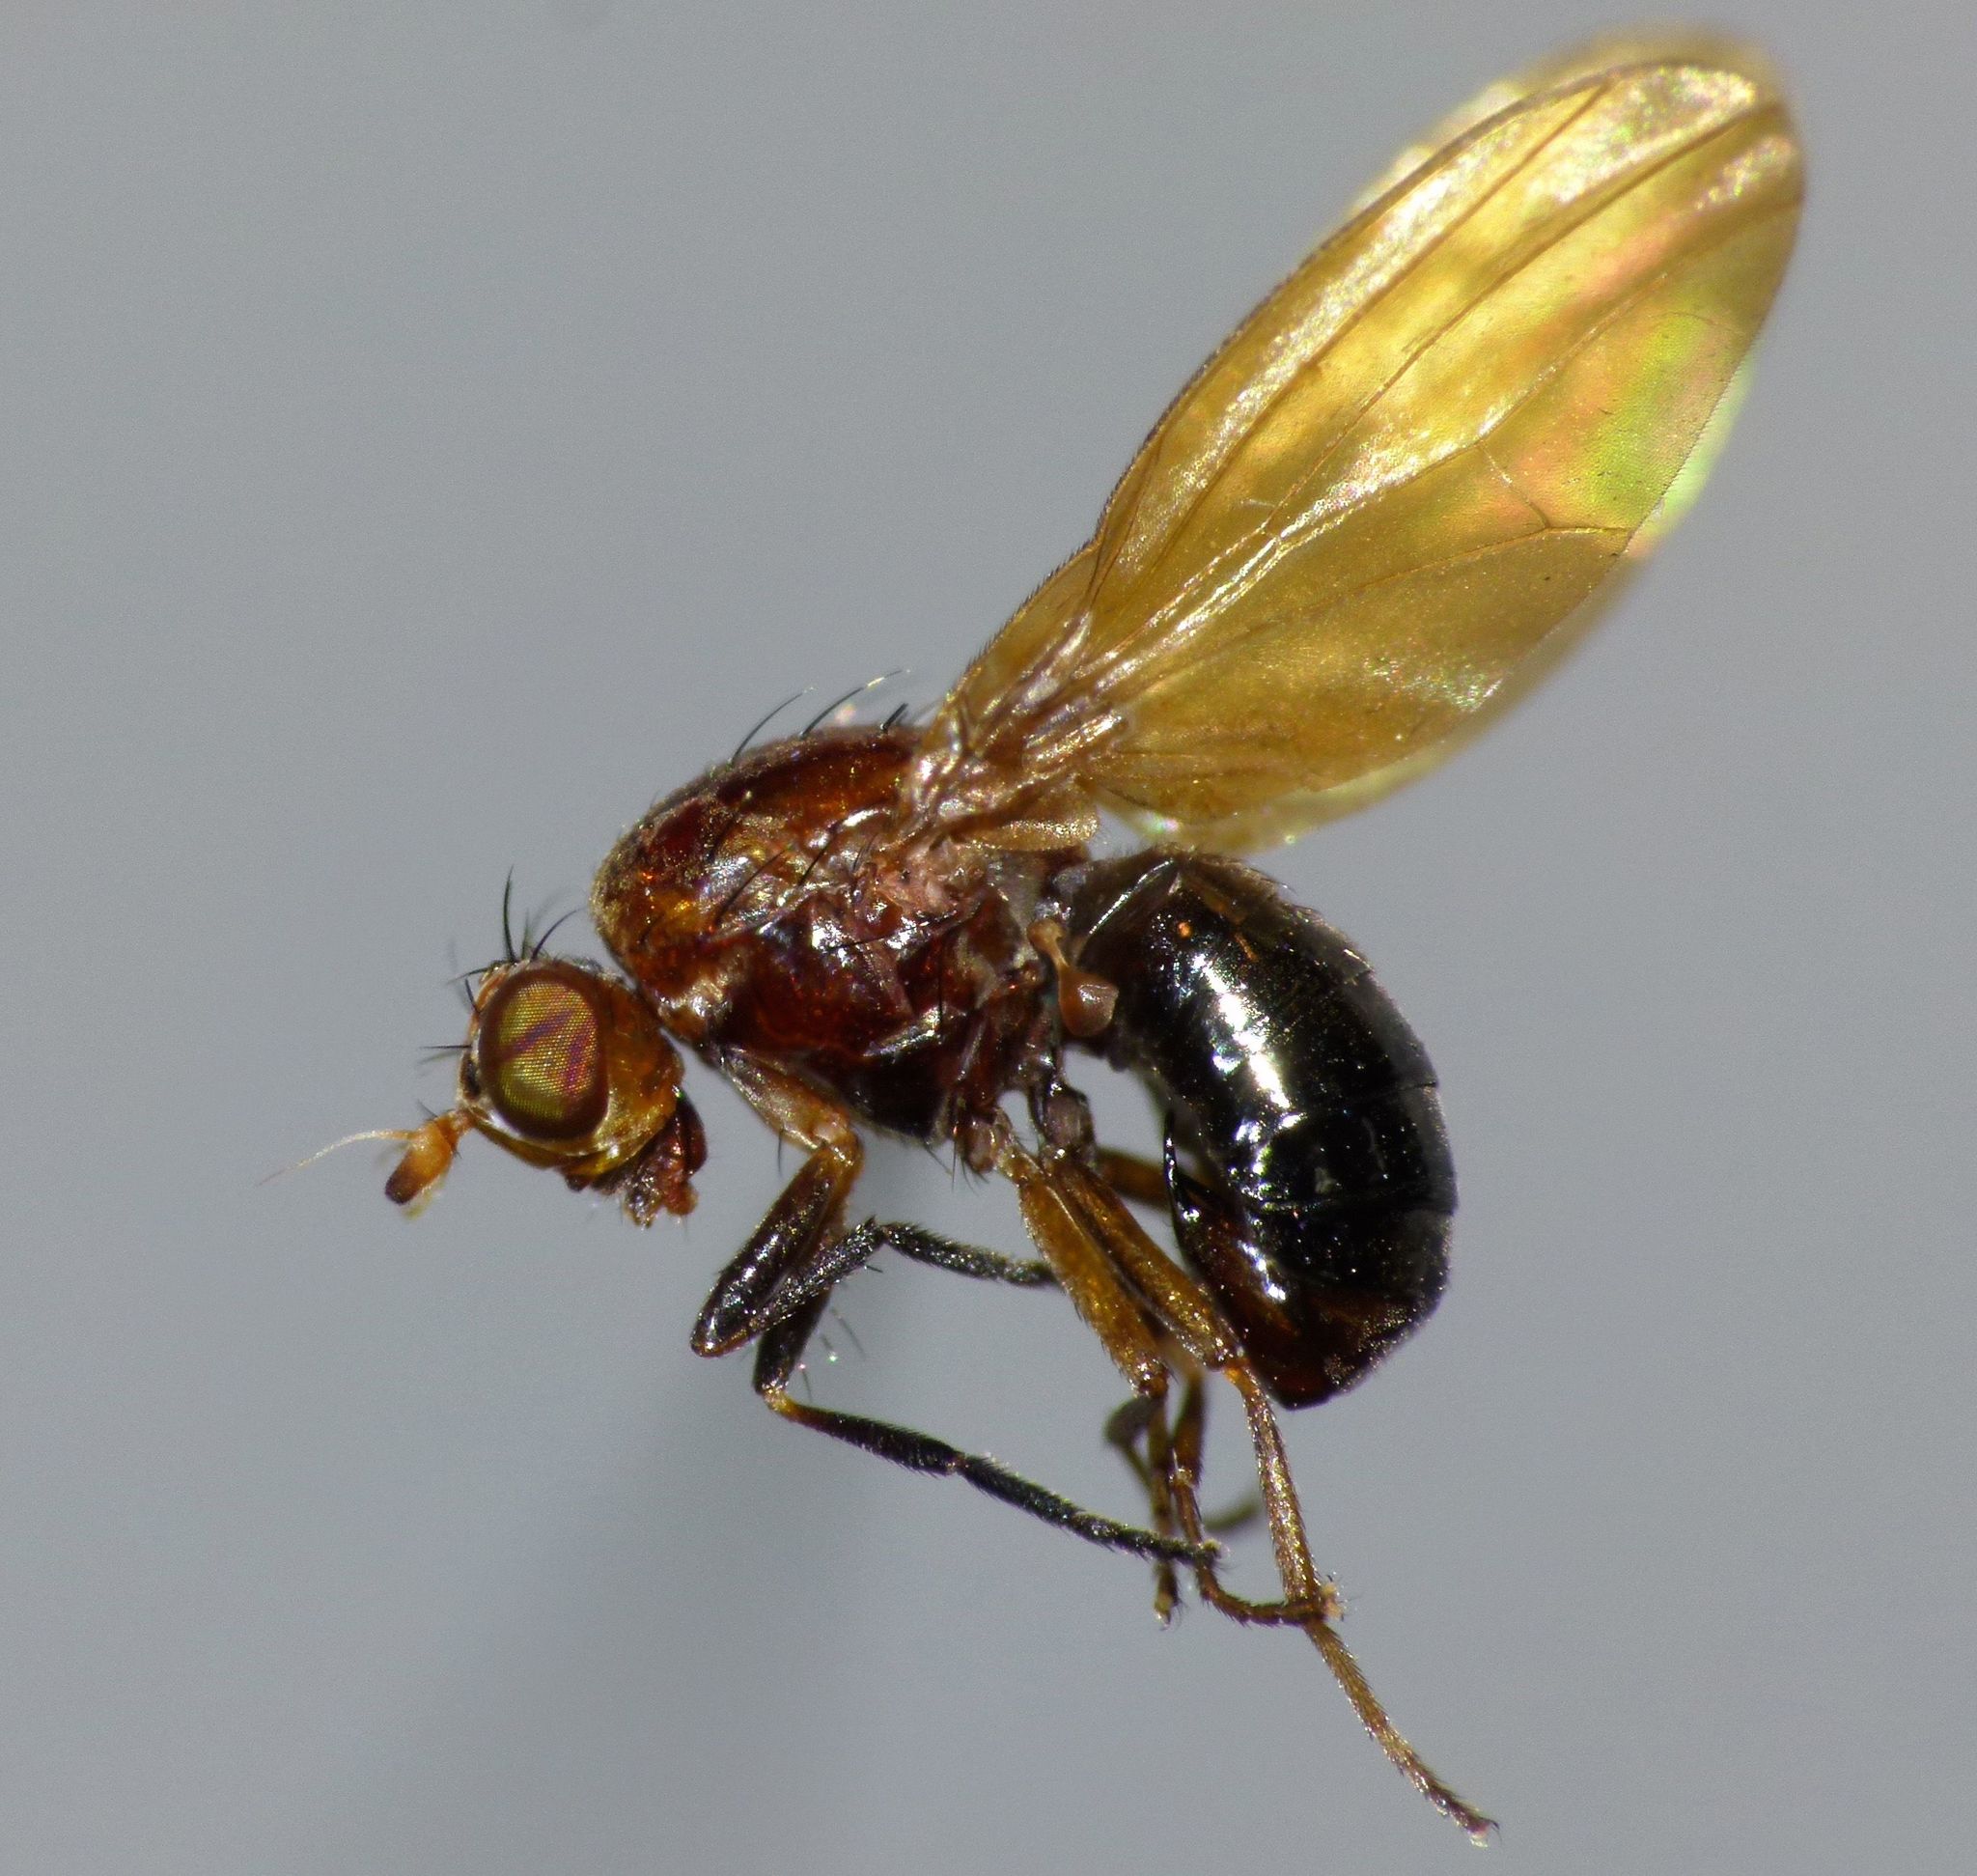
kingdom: Animalia
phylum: Arthropoda
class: Insecta
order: Diptera
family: Lauxaniidae
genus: Poecilohetaerella
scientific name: Poecilohetaerella watti
